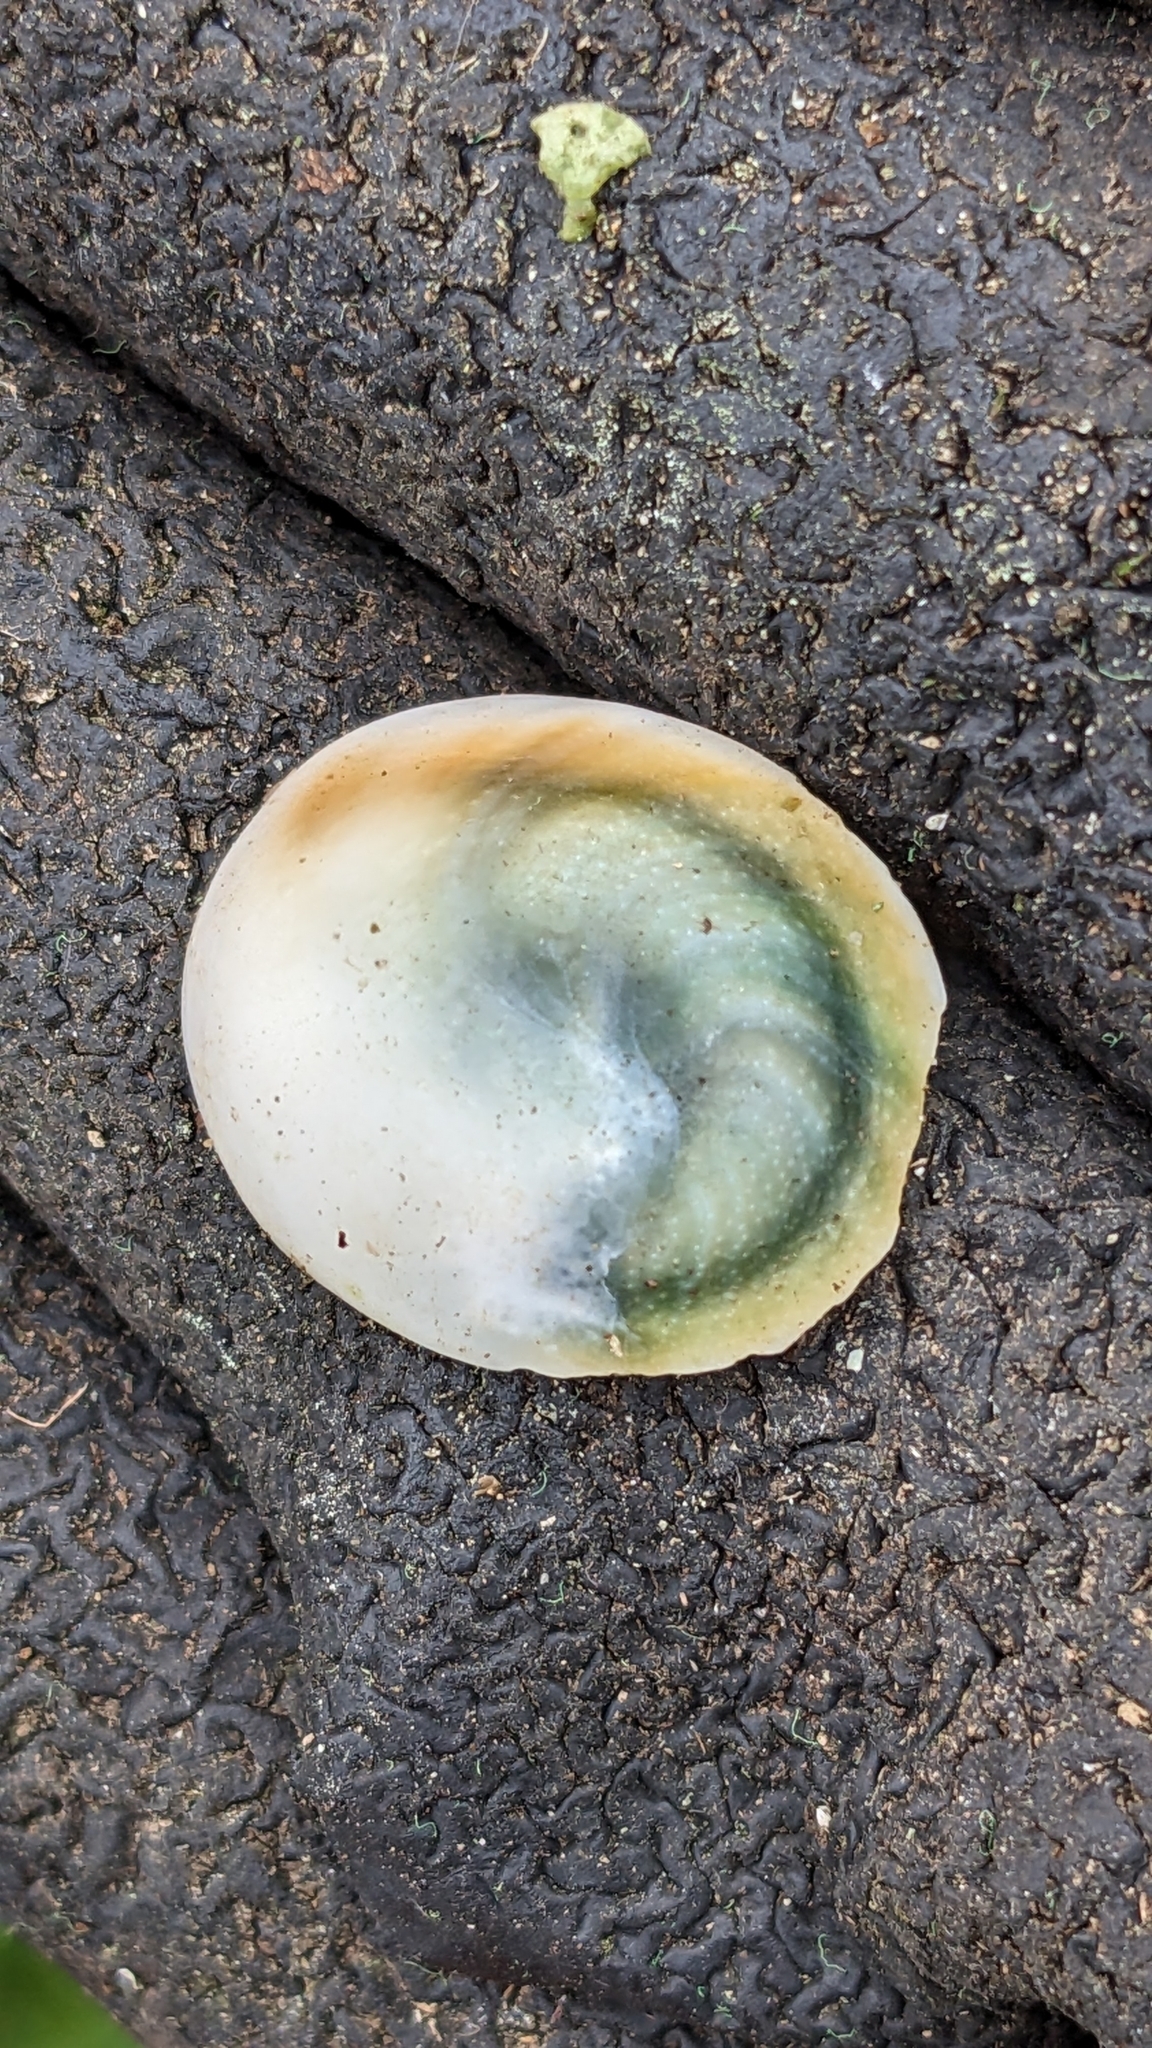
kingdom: Animalia
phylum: Mollusca
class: Gastropoda
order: Trochida
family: Turbinidae
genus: Lunella
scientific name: Lunella smaragda
